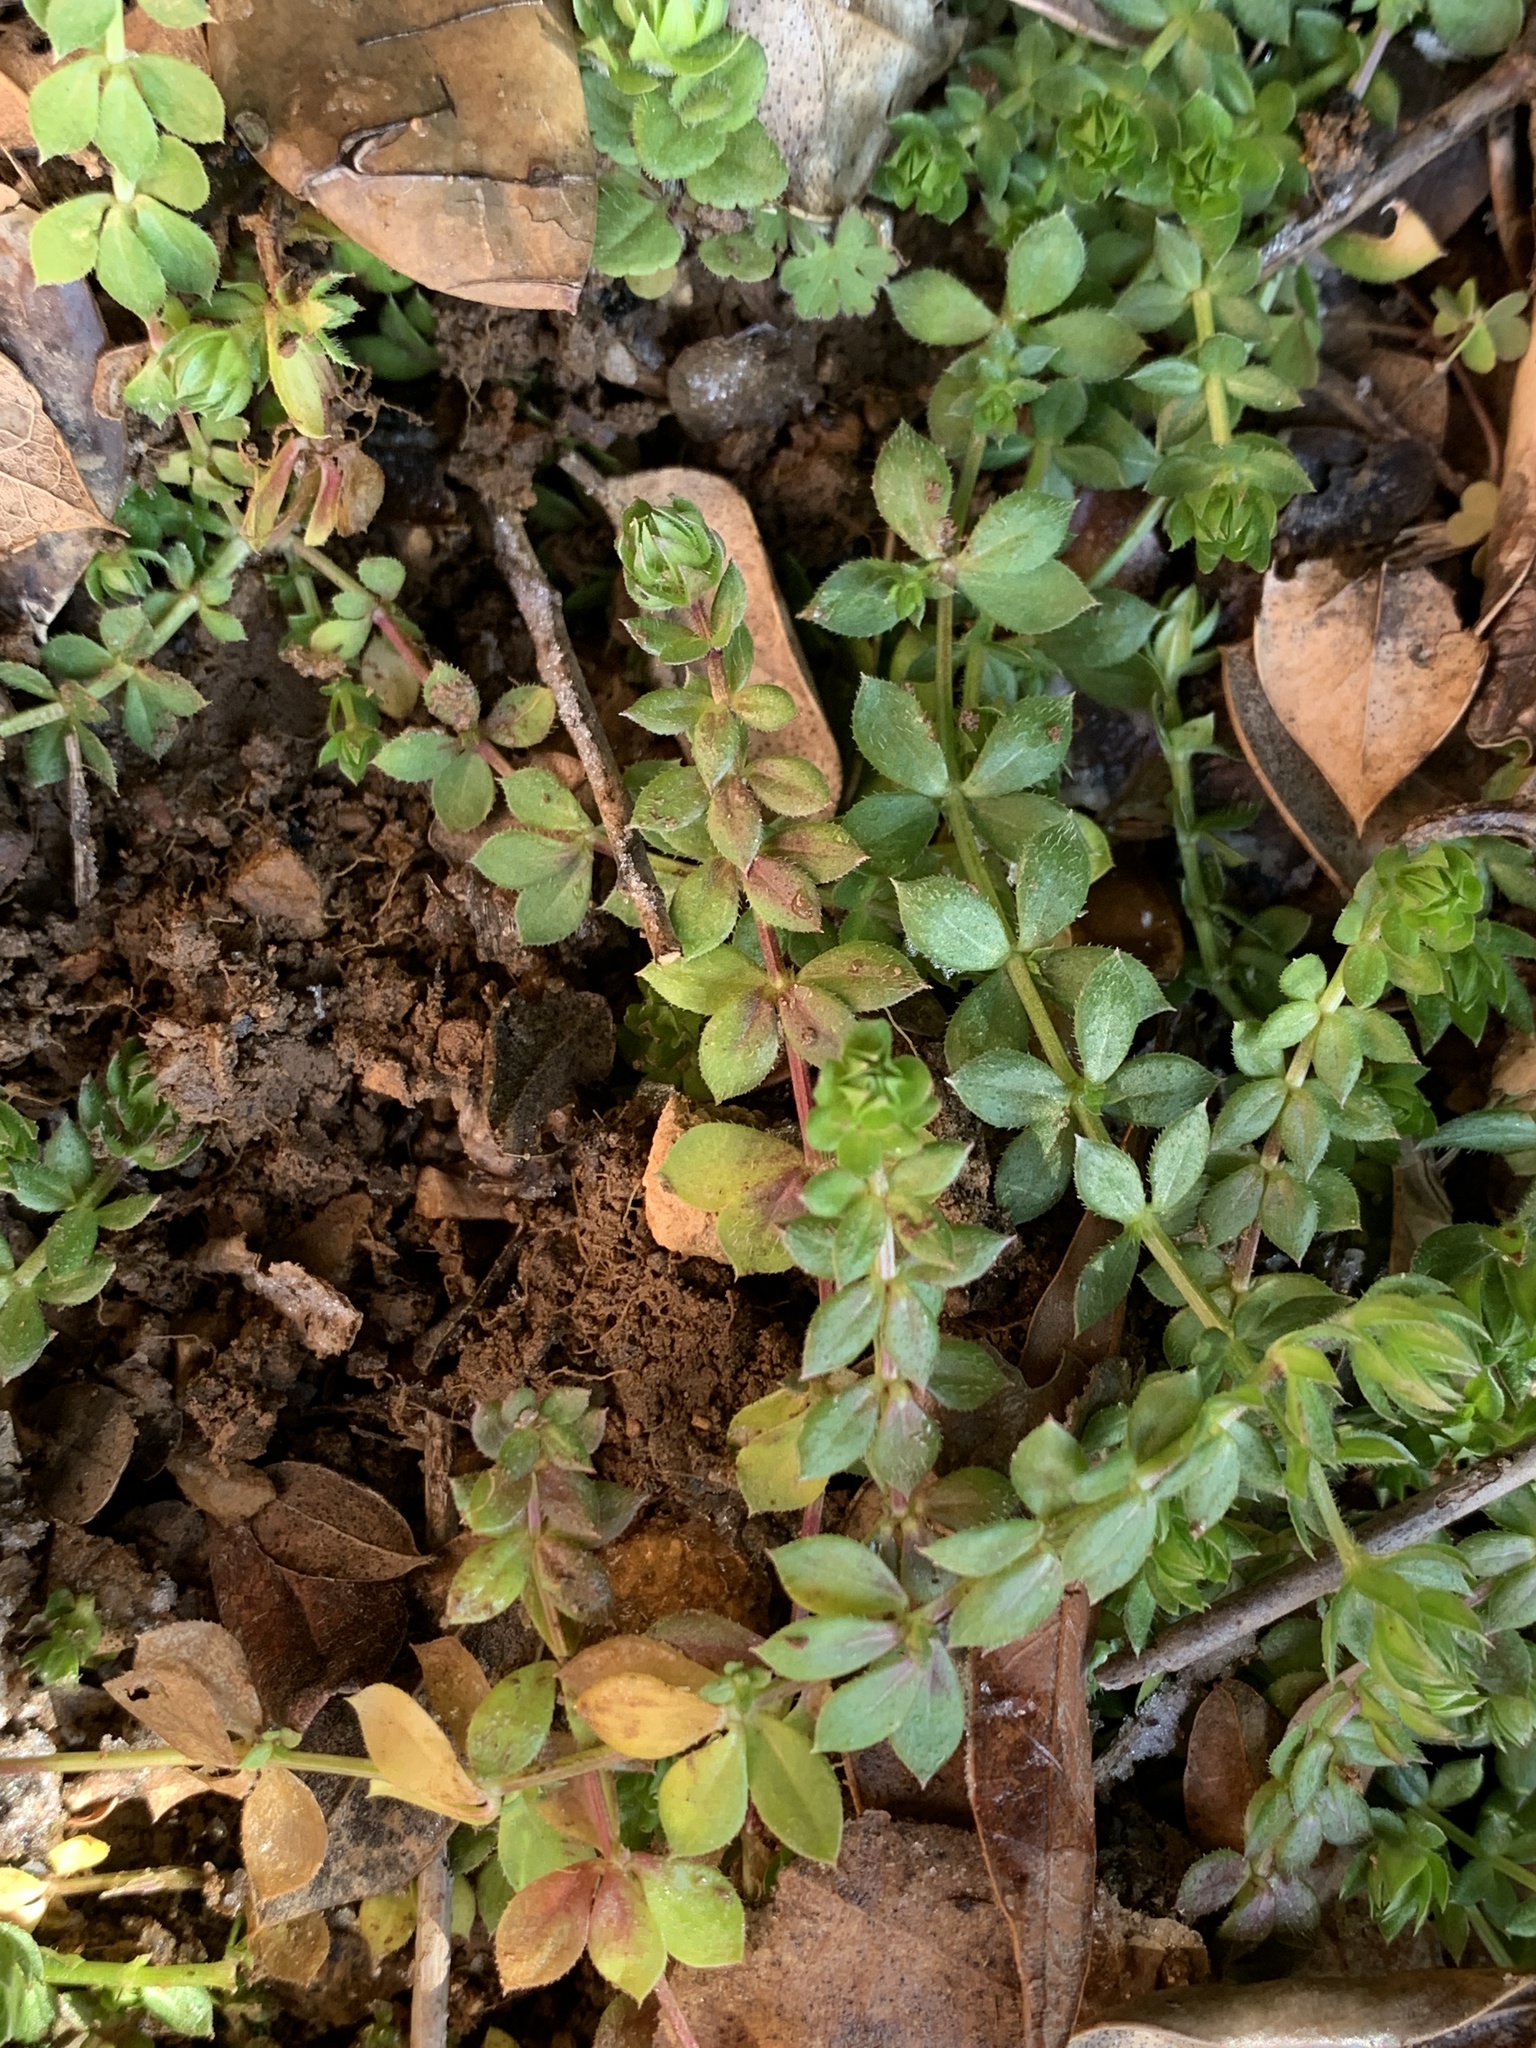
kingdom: Plantae
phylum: Tracheophyta
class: Magnoliopsida
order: Gentianales
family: Rubiaceae
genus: Sherardia
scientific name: Sherardia arvensis
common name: Field madder
